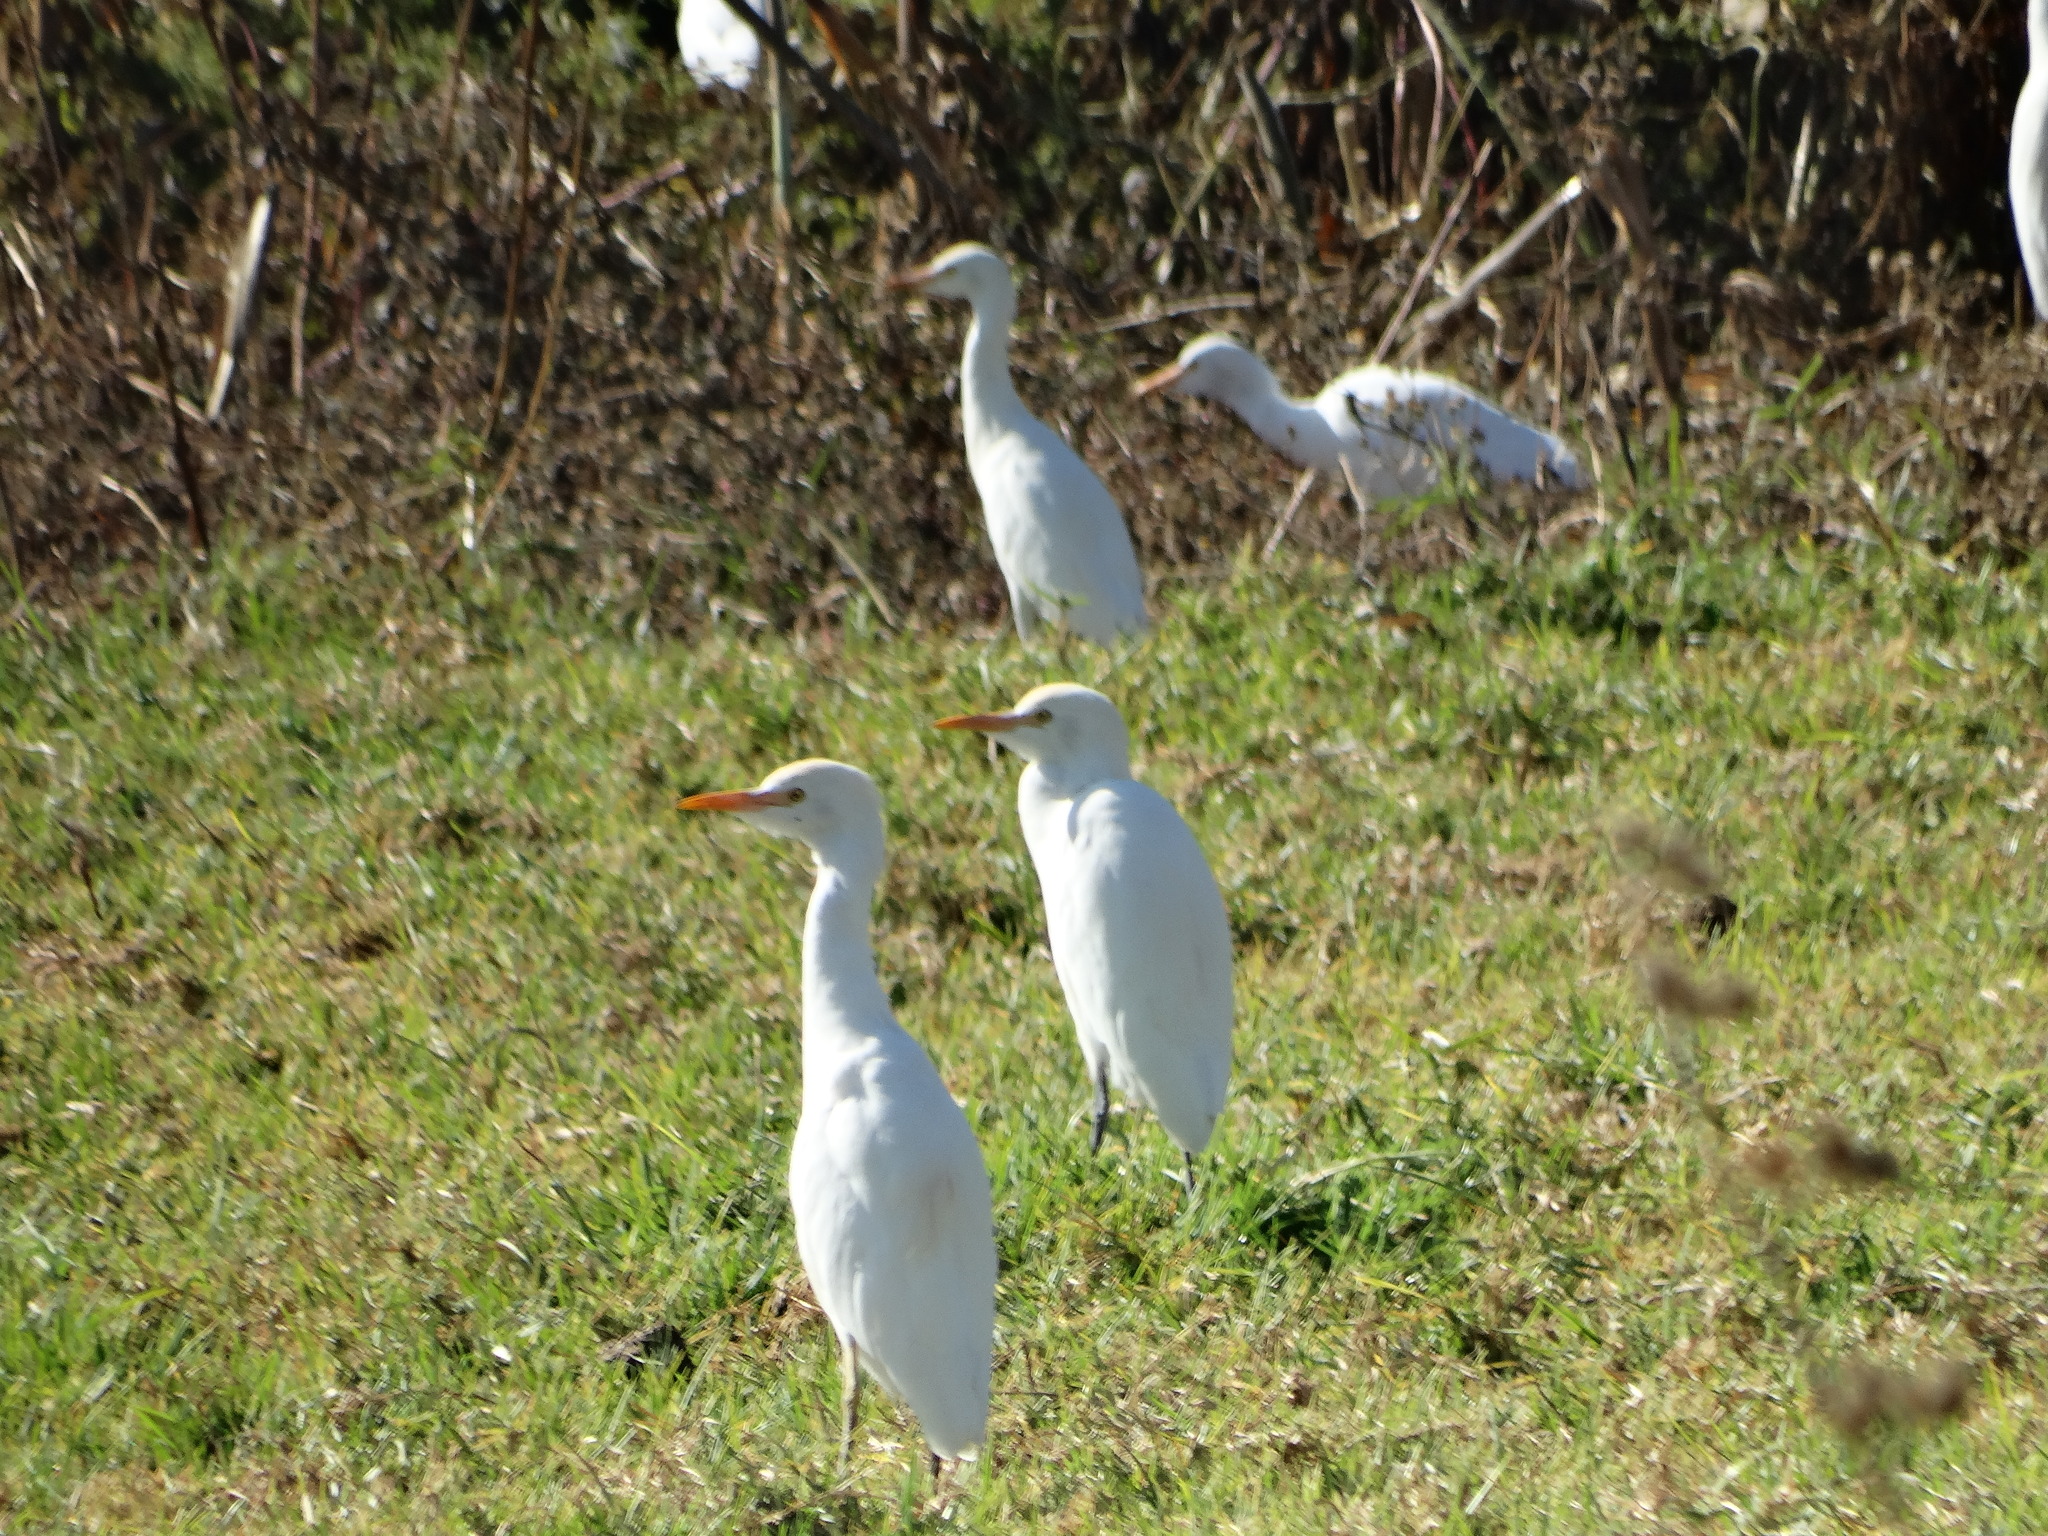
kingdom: Animalia
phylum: Chordata
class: Aves
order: Pelecaniformes
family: Ardeidae
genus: Bubulcus
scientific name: Bubulcus ibis
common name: Cattle egret
